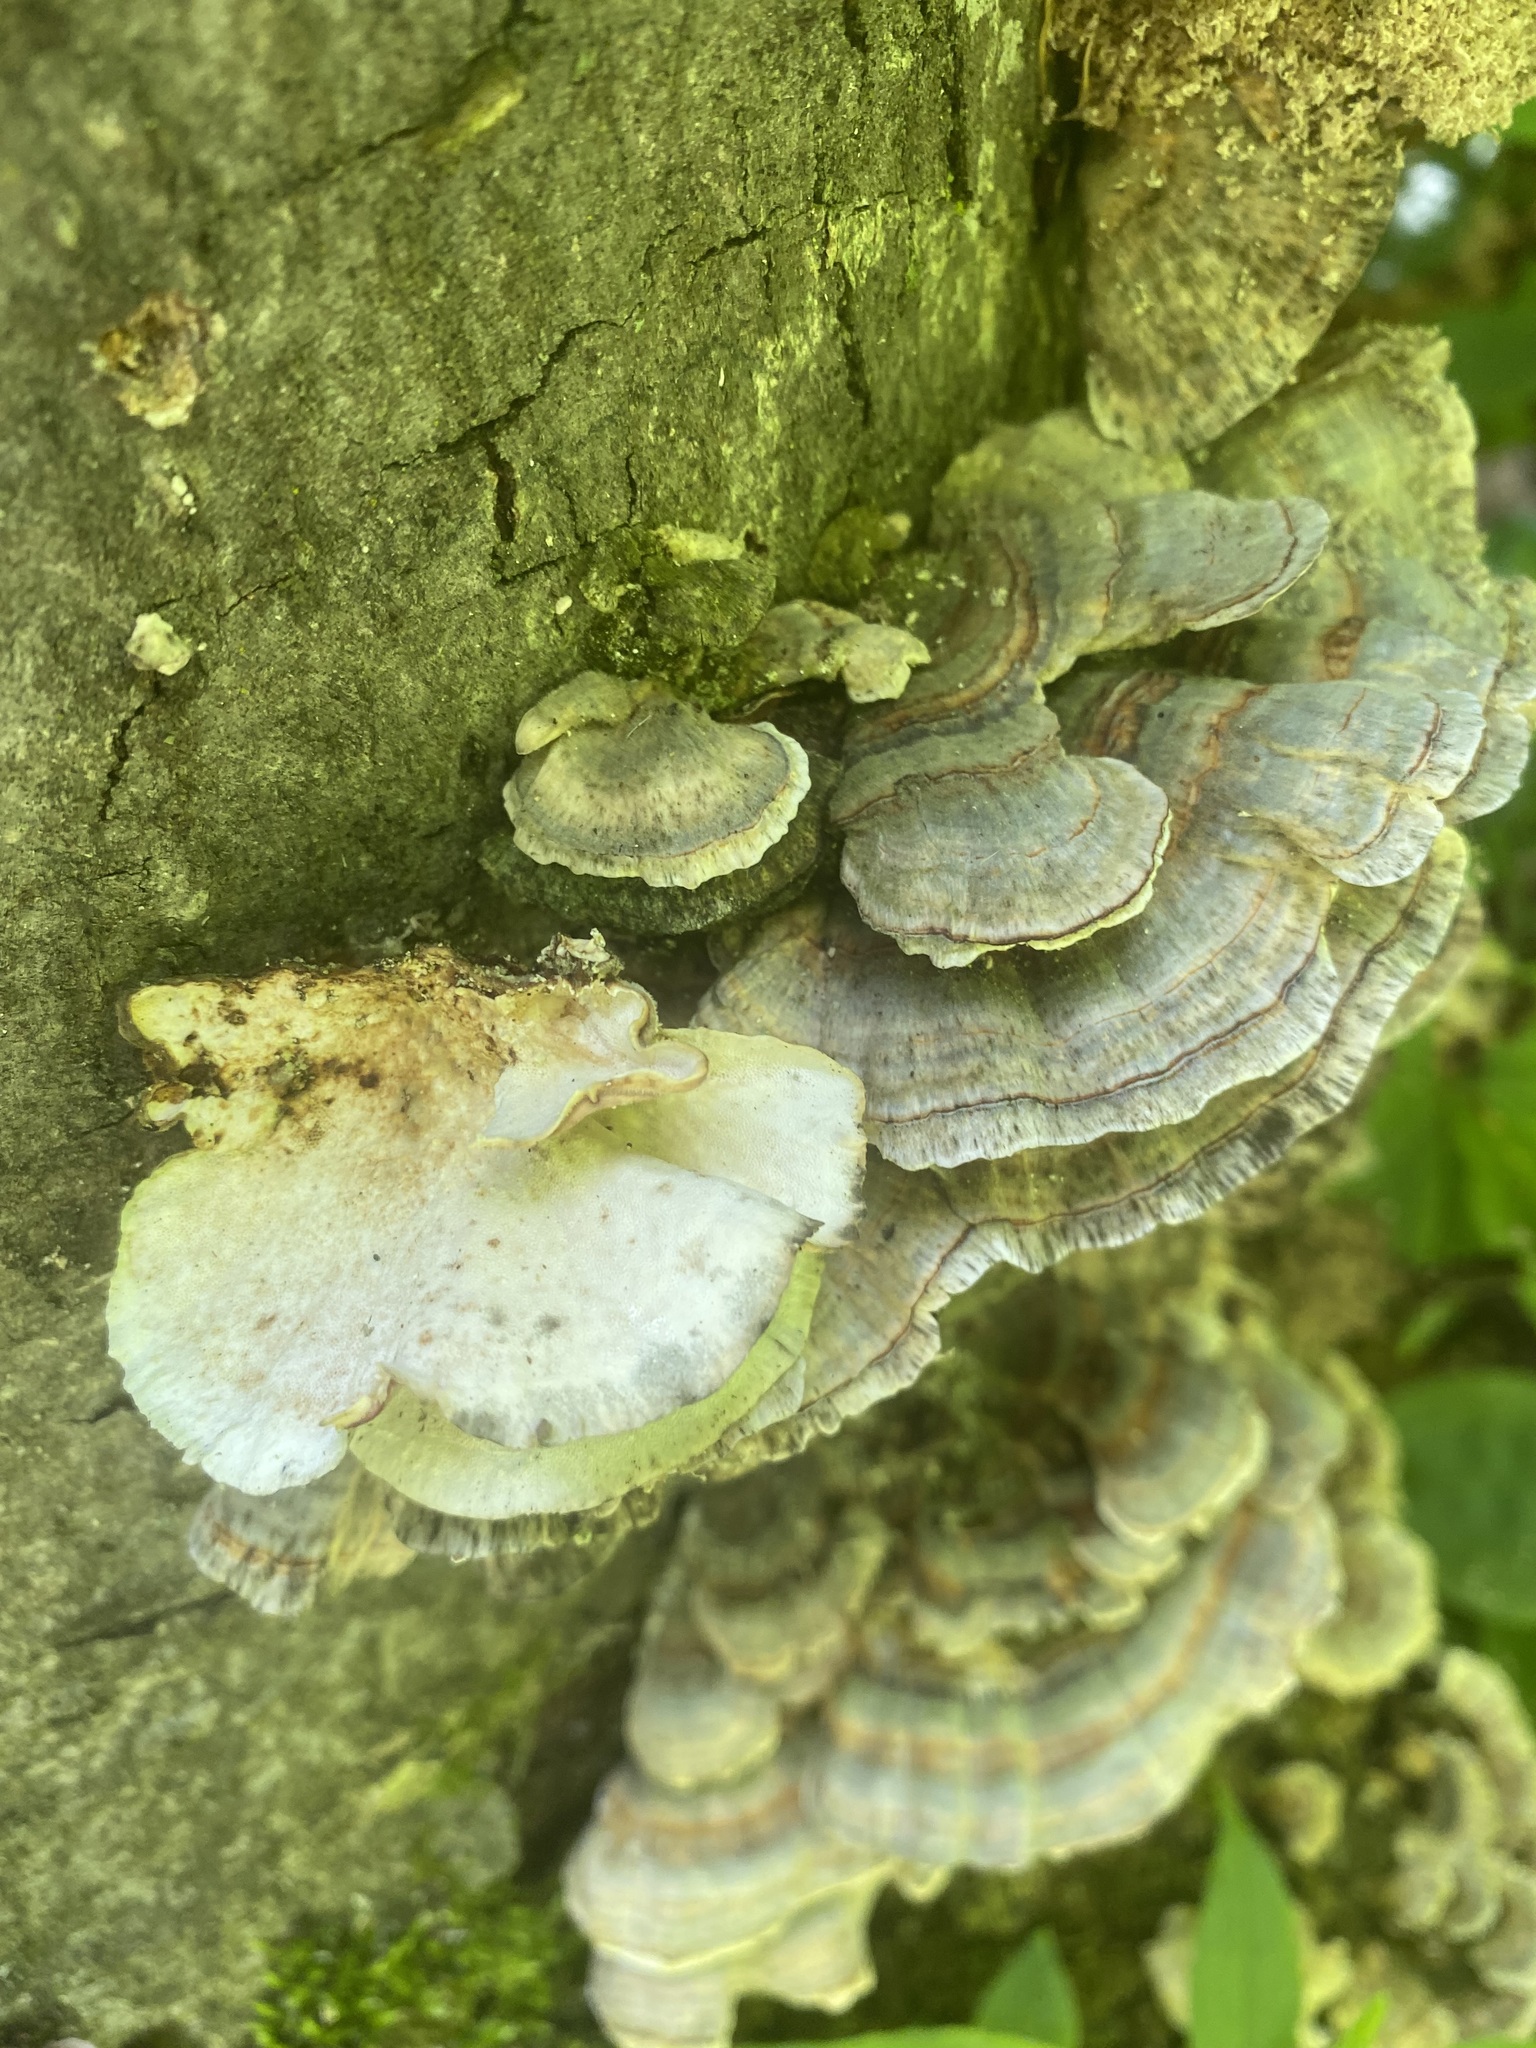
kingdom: Fungi
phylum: Basidiomycota
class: Agaricomycetes
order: Polyporales
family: Polyporaceae
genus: Trametes
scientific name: Trametes versicolor
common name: Turkeytail
